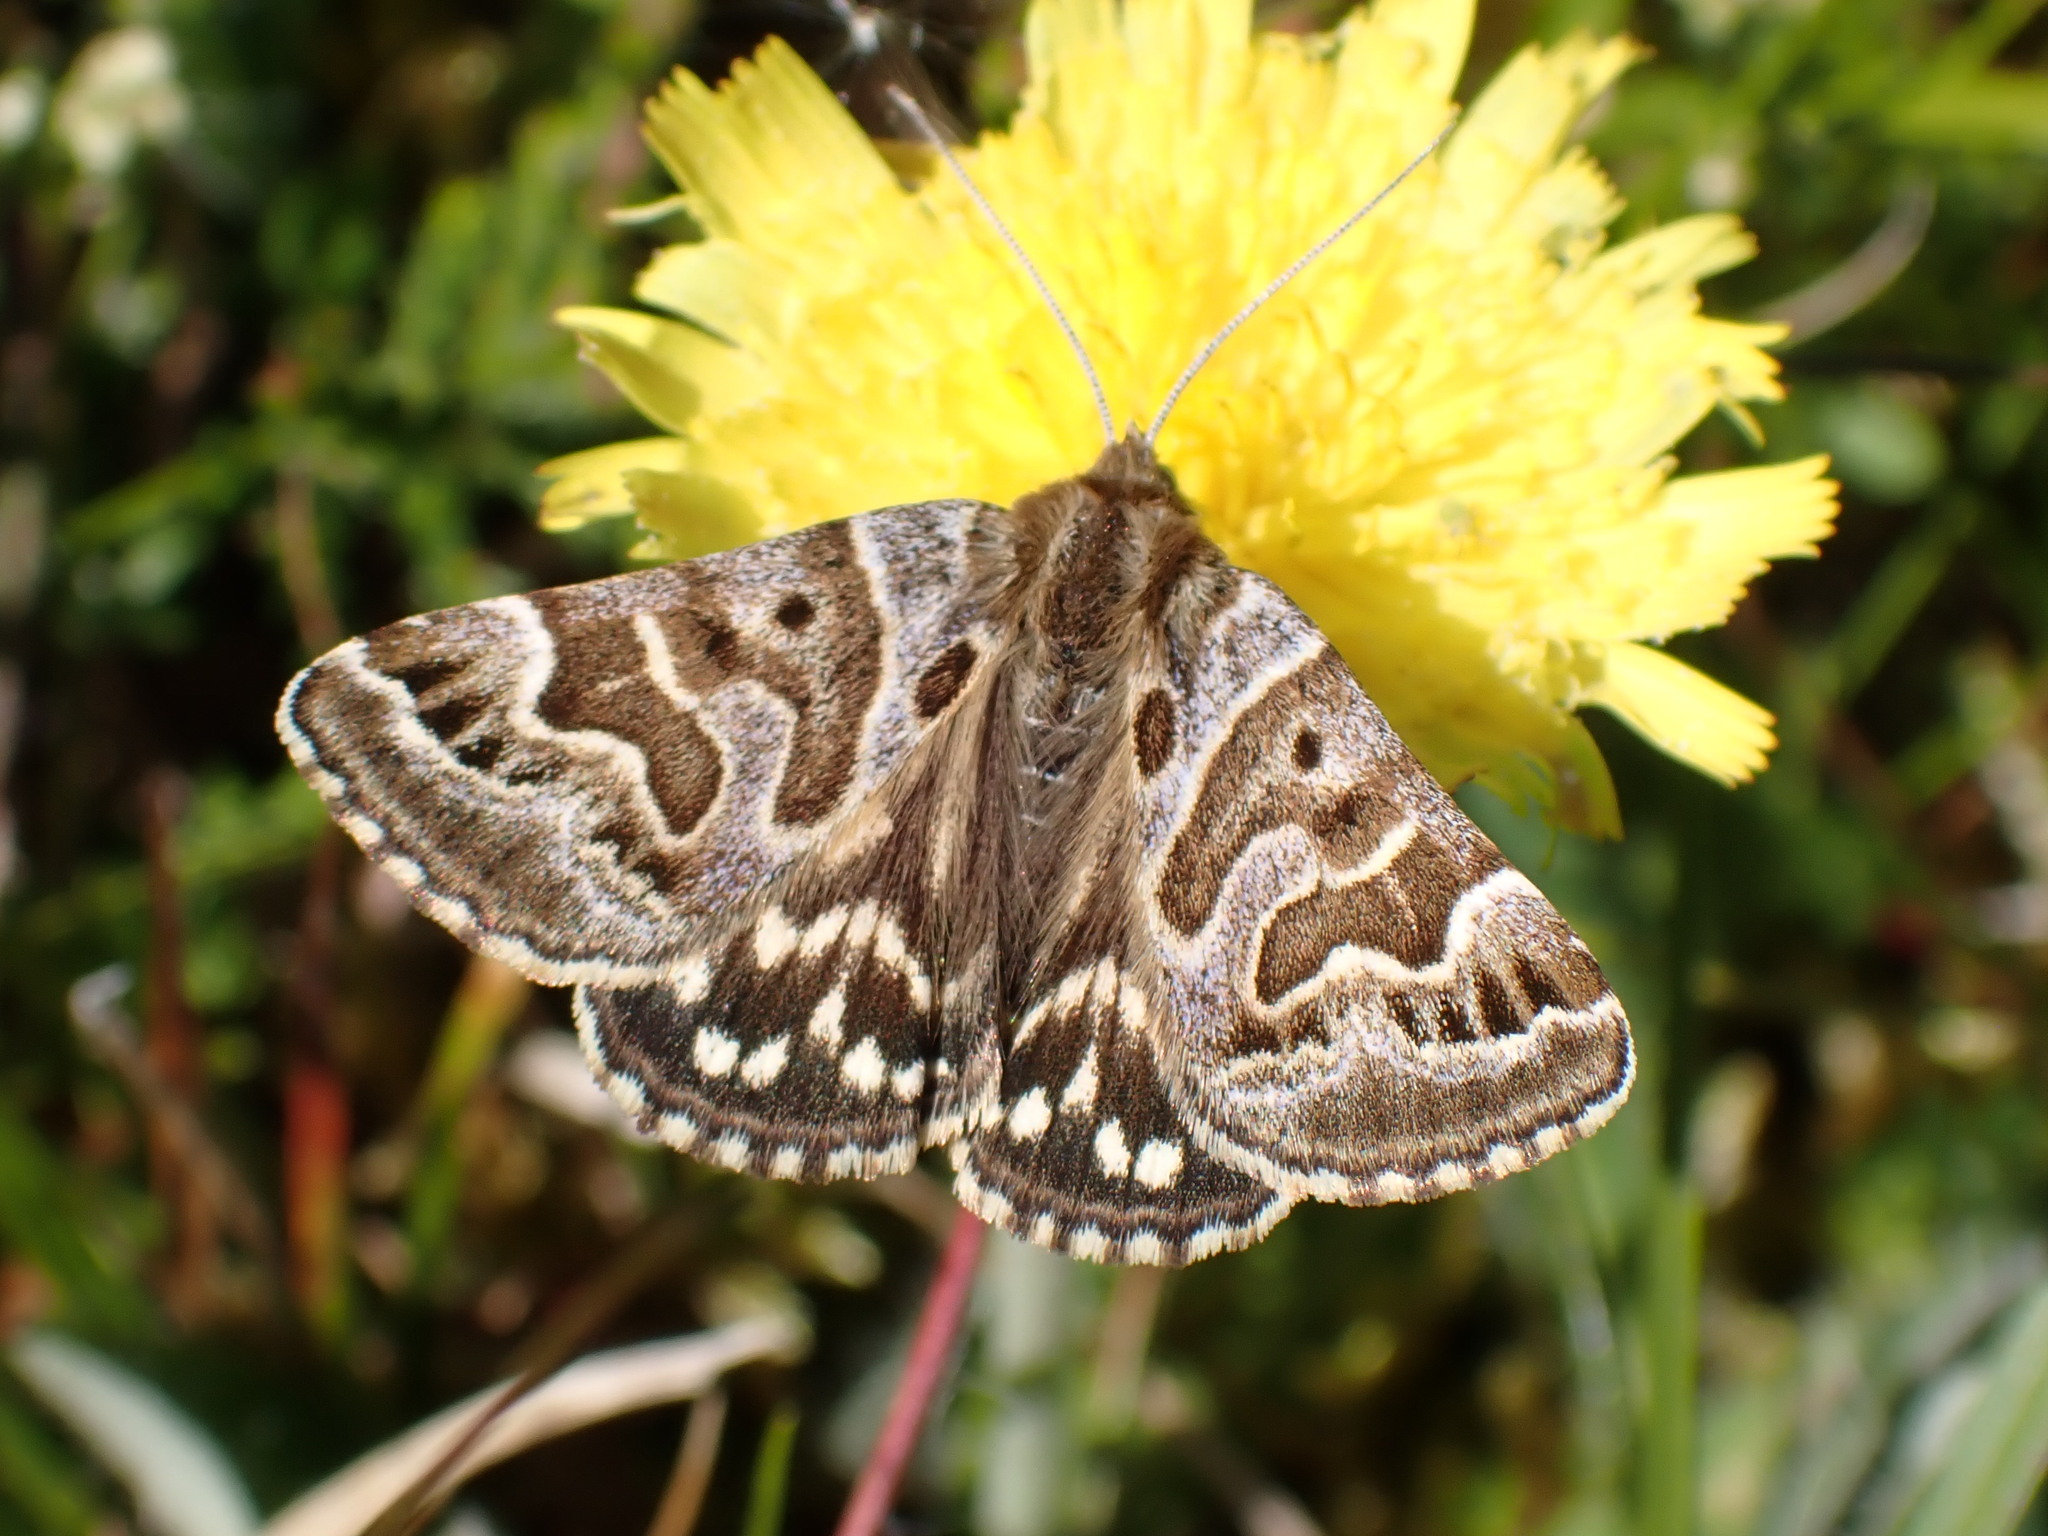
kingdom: Animalia
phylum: Arthropoda
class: Insecta
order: Lepidoptera
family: Erebidae
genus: Callistege
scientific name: Callistege mi
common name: Mother shipton
